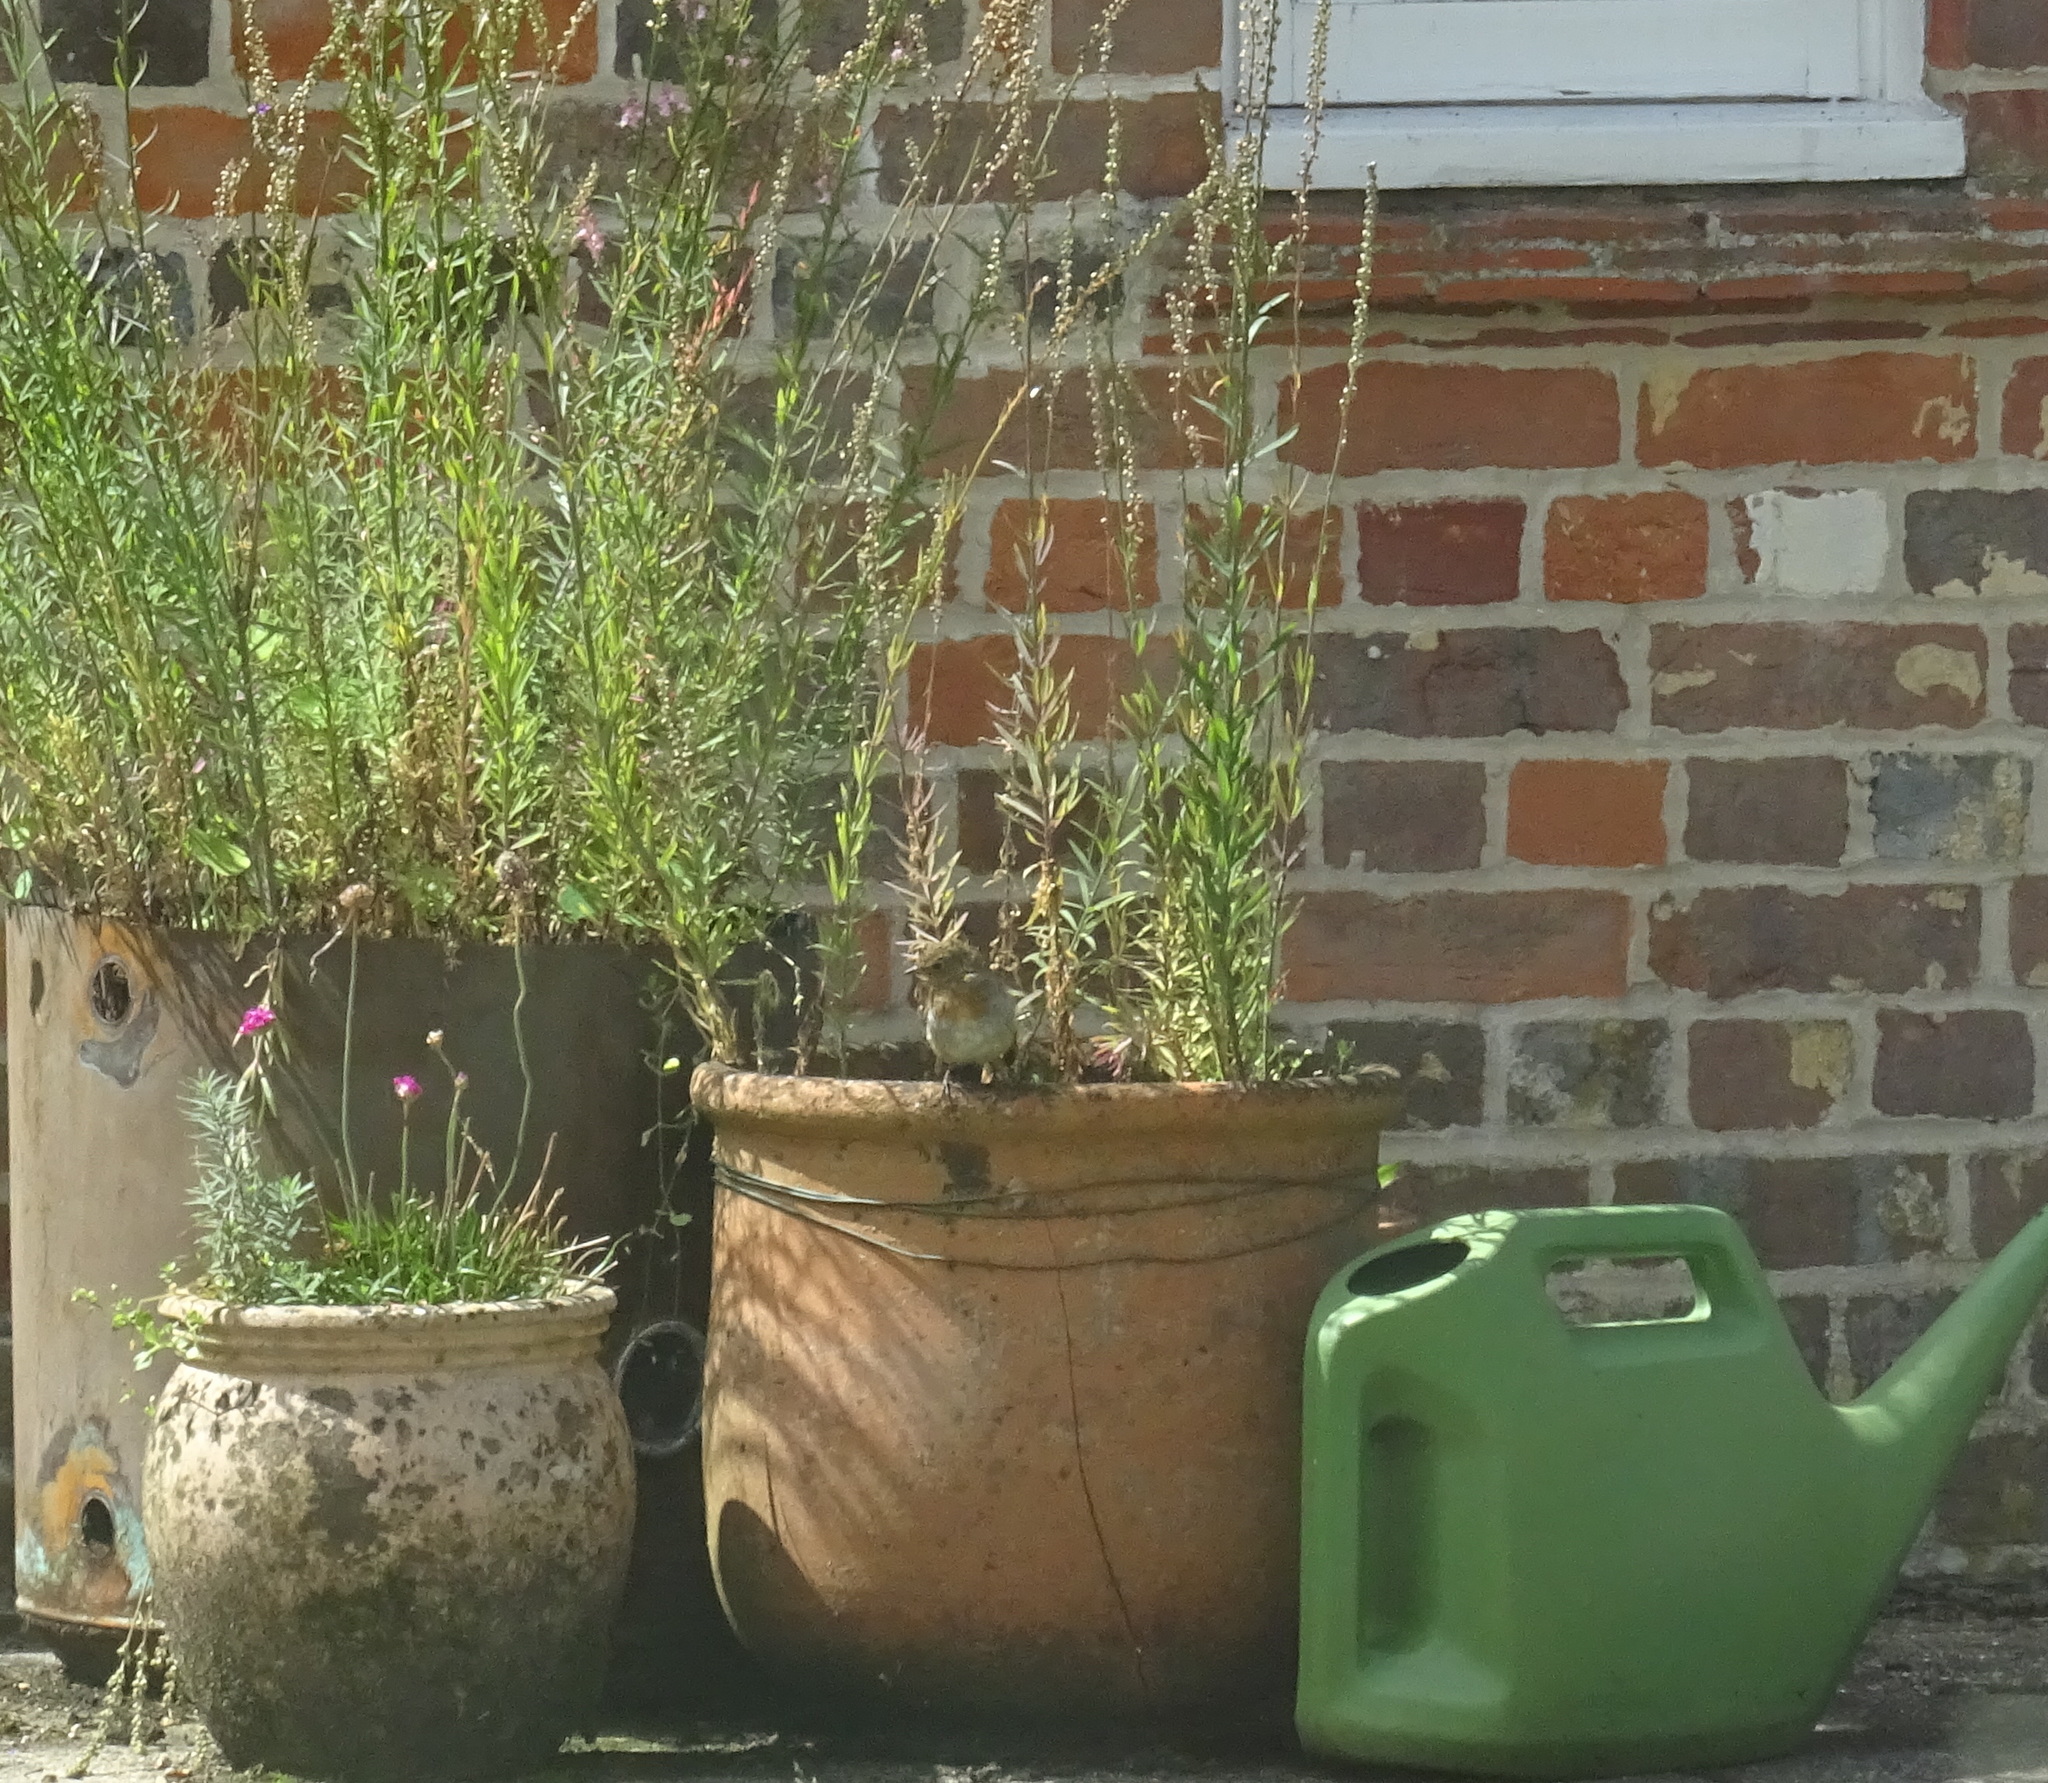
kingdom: Animalia
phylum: Chordata
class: Aves
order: Passeriformes
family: Muscicapidae
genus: Erithacus
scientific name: Erithacus rubecula
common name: European robin
